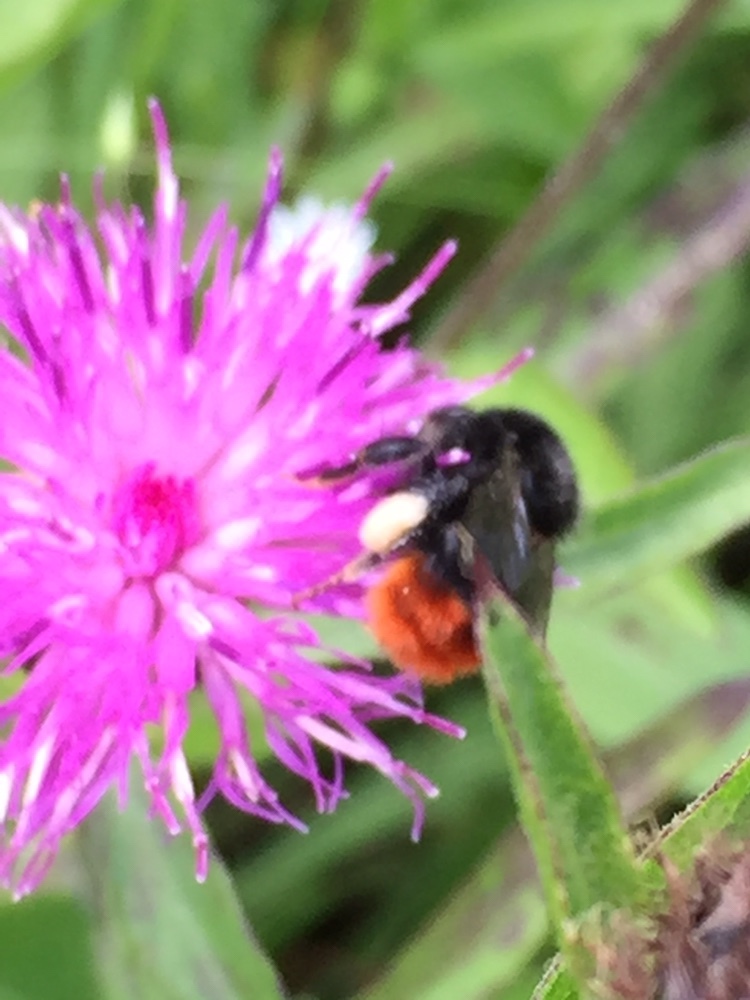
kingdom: Animalia
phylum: Arthropoda
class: Insecta
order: Hymenoptera
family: Apidae
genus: Bombus
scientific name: Bombus lapidarius
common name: Large red-tailed humble-bee
